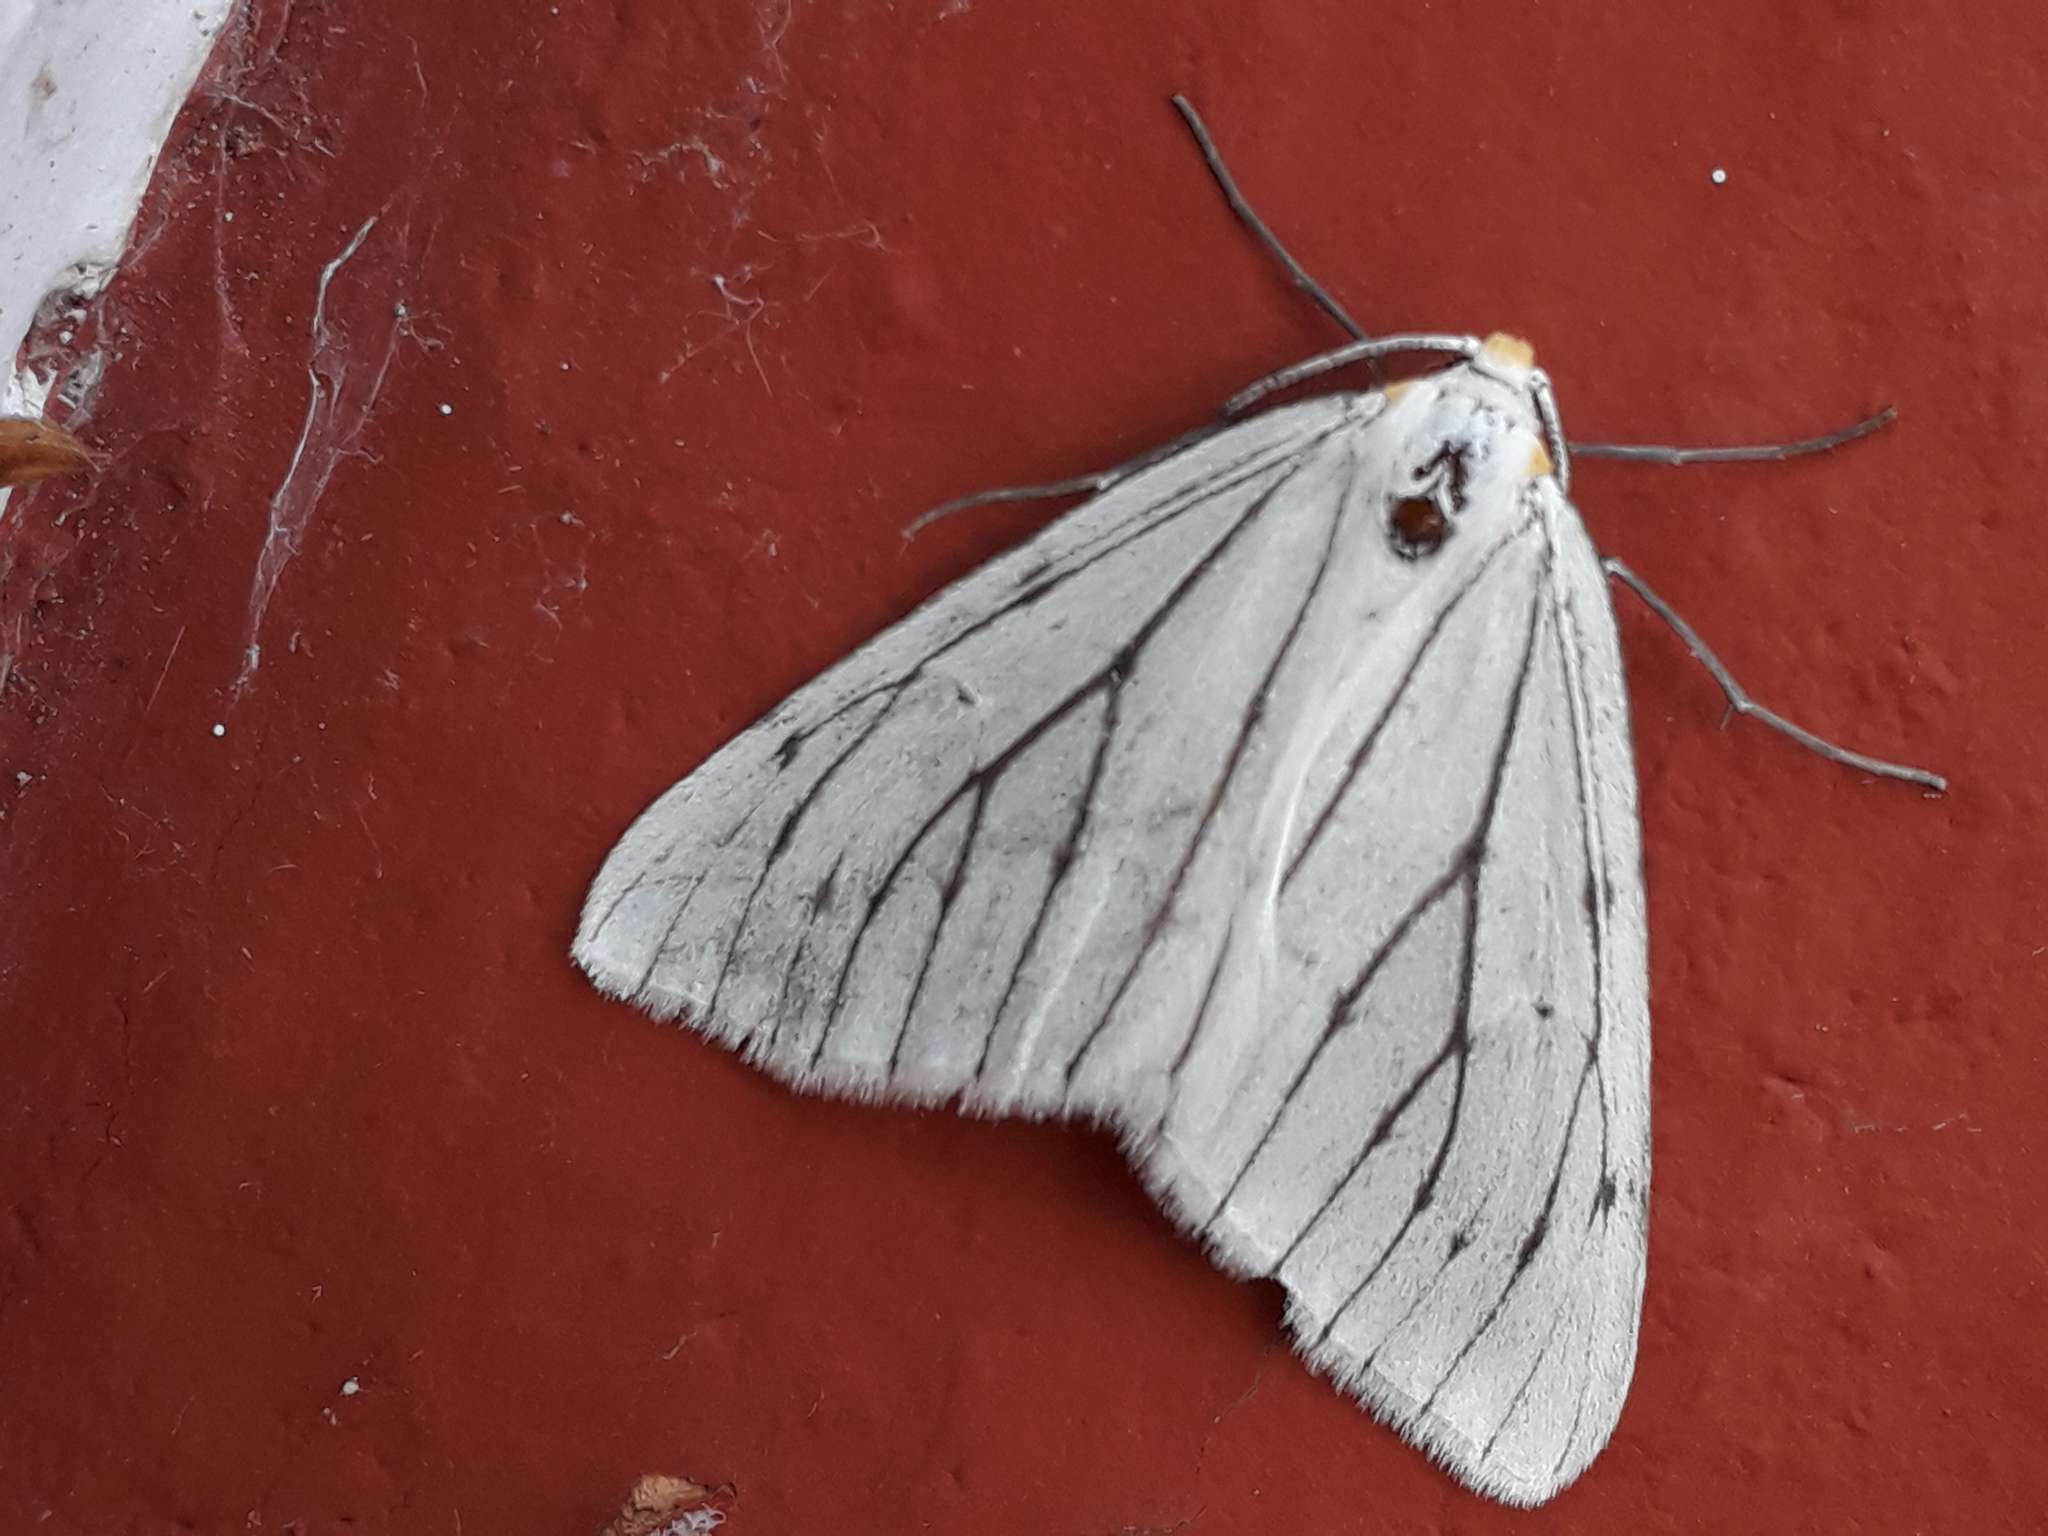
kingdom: Animalia
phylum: Arthropoda
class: Insecta
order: Lepidoptera
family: Geometridae
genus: Neuromelia
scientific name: Neuromelia selectata
